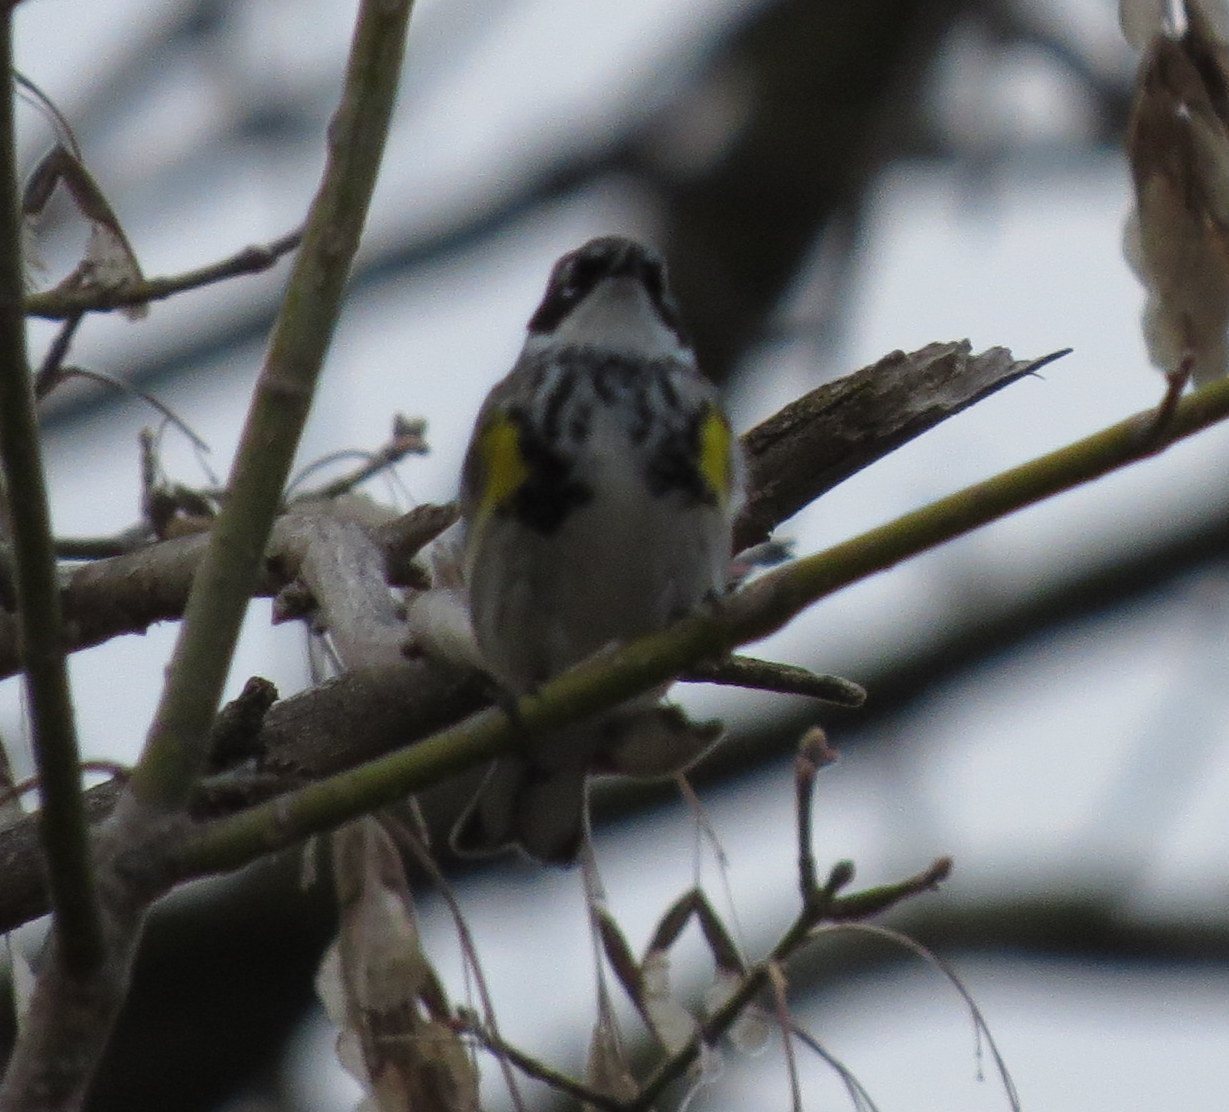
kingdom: Animalia
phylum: Chordata
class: Aves
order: Passeriformes
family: Parulidae
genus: Setophaga
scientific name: Setophaga coronata
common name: Myrtle warbler
